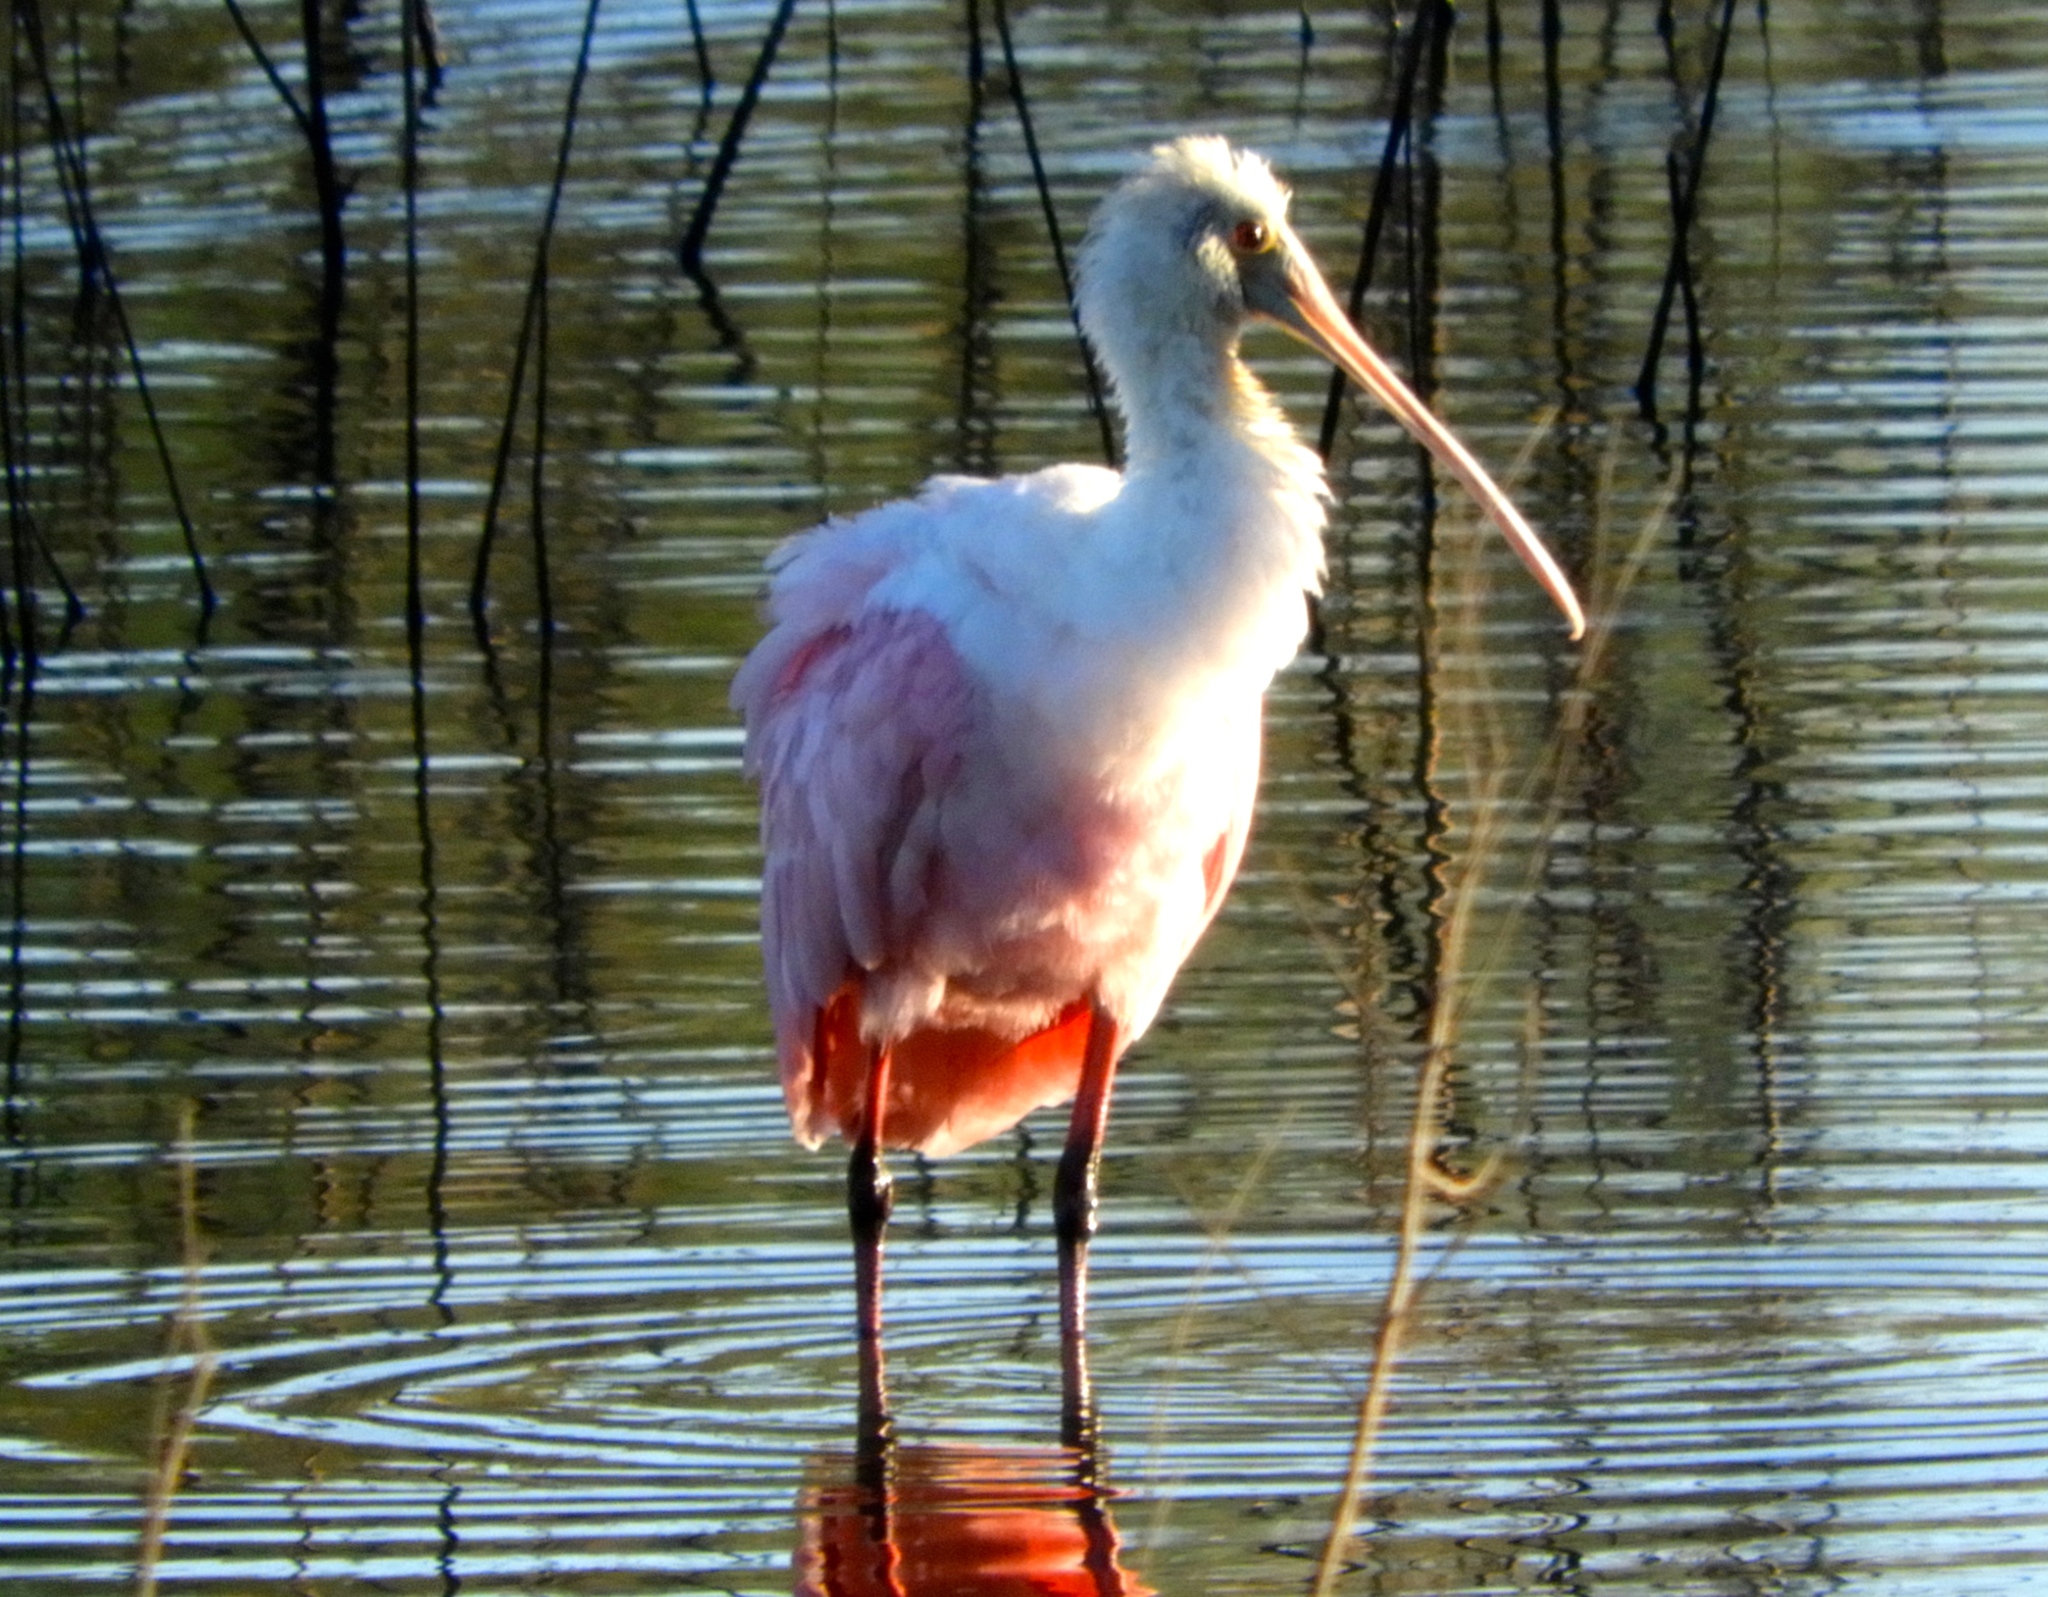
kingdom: Animalia
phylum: Chordata
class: Aves
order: Pelecaniformes
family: Threskiornithidae
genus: Platalea
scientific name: Platalea ajaja
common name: Roseate spoonbill
